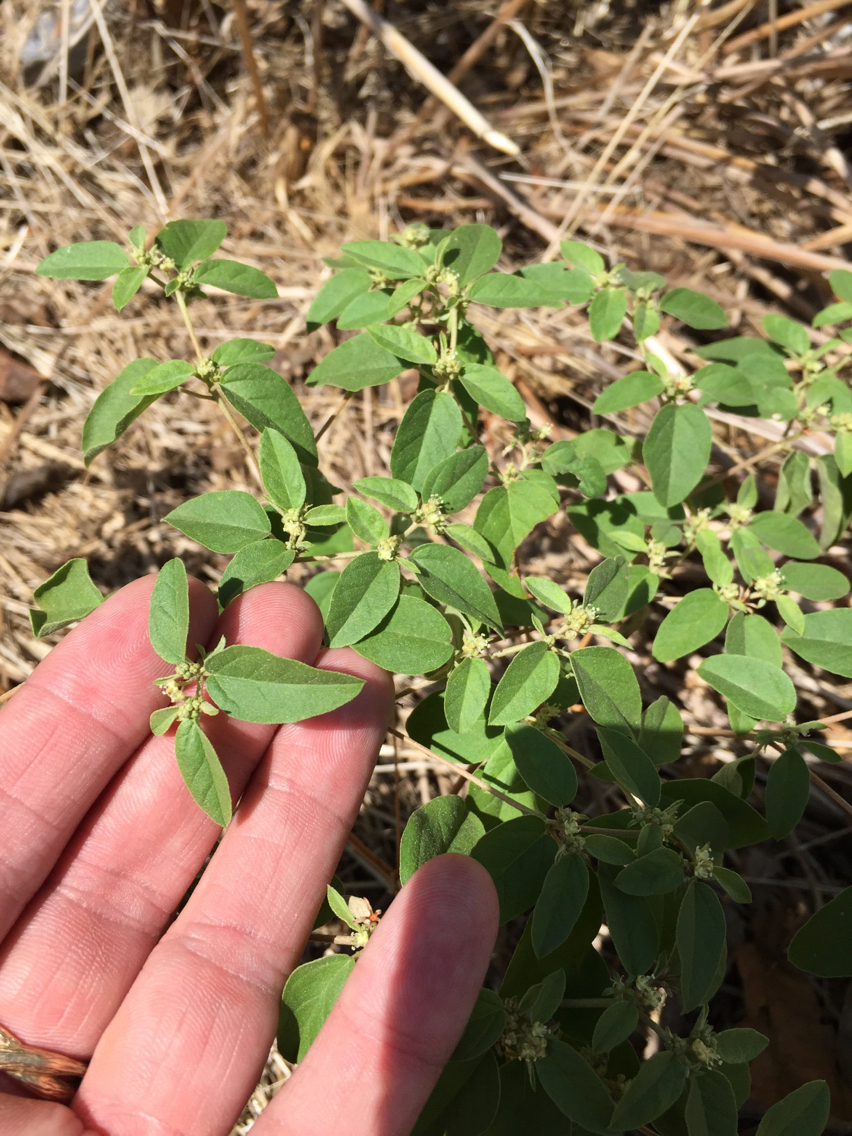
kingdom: Plantae
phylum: Tracheophyta
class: Magnoliopsida
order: Malpighiales
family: Euphorbiaceae
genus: Croton
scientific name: Croton monanthogynus
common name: One-seed croton
